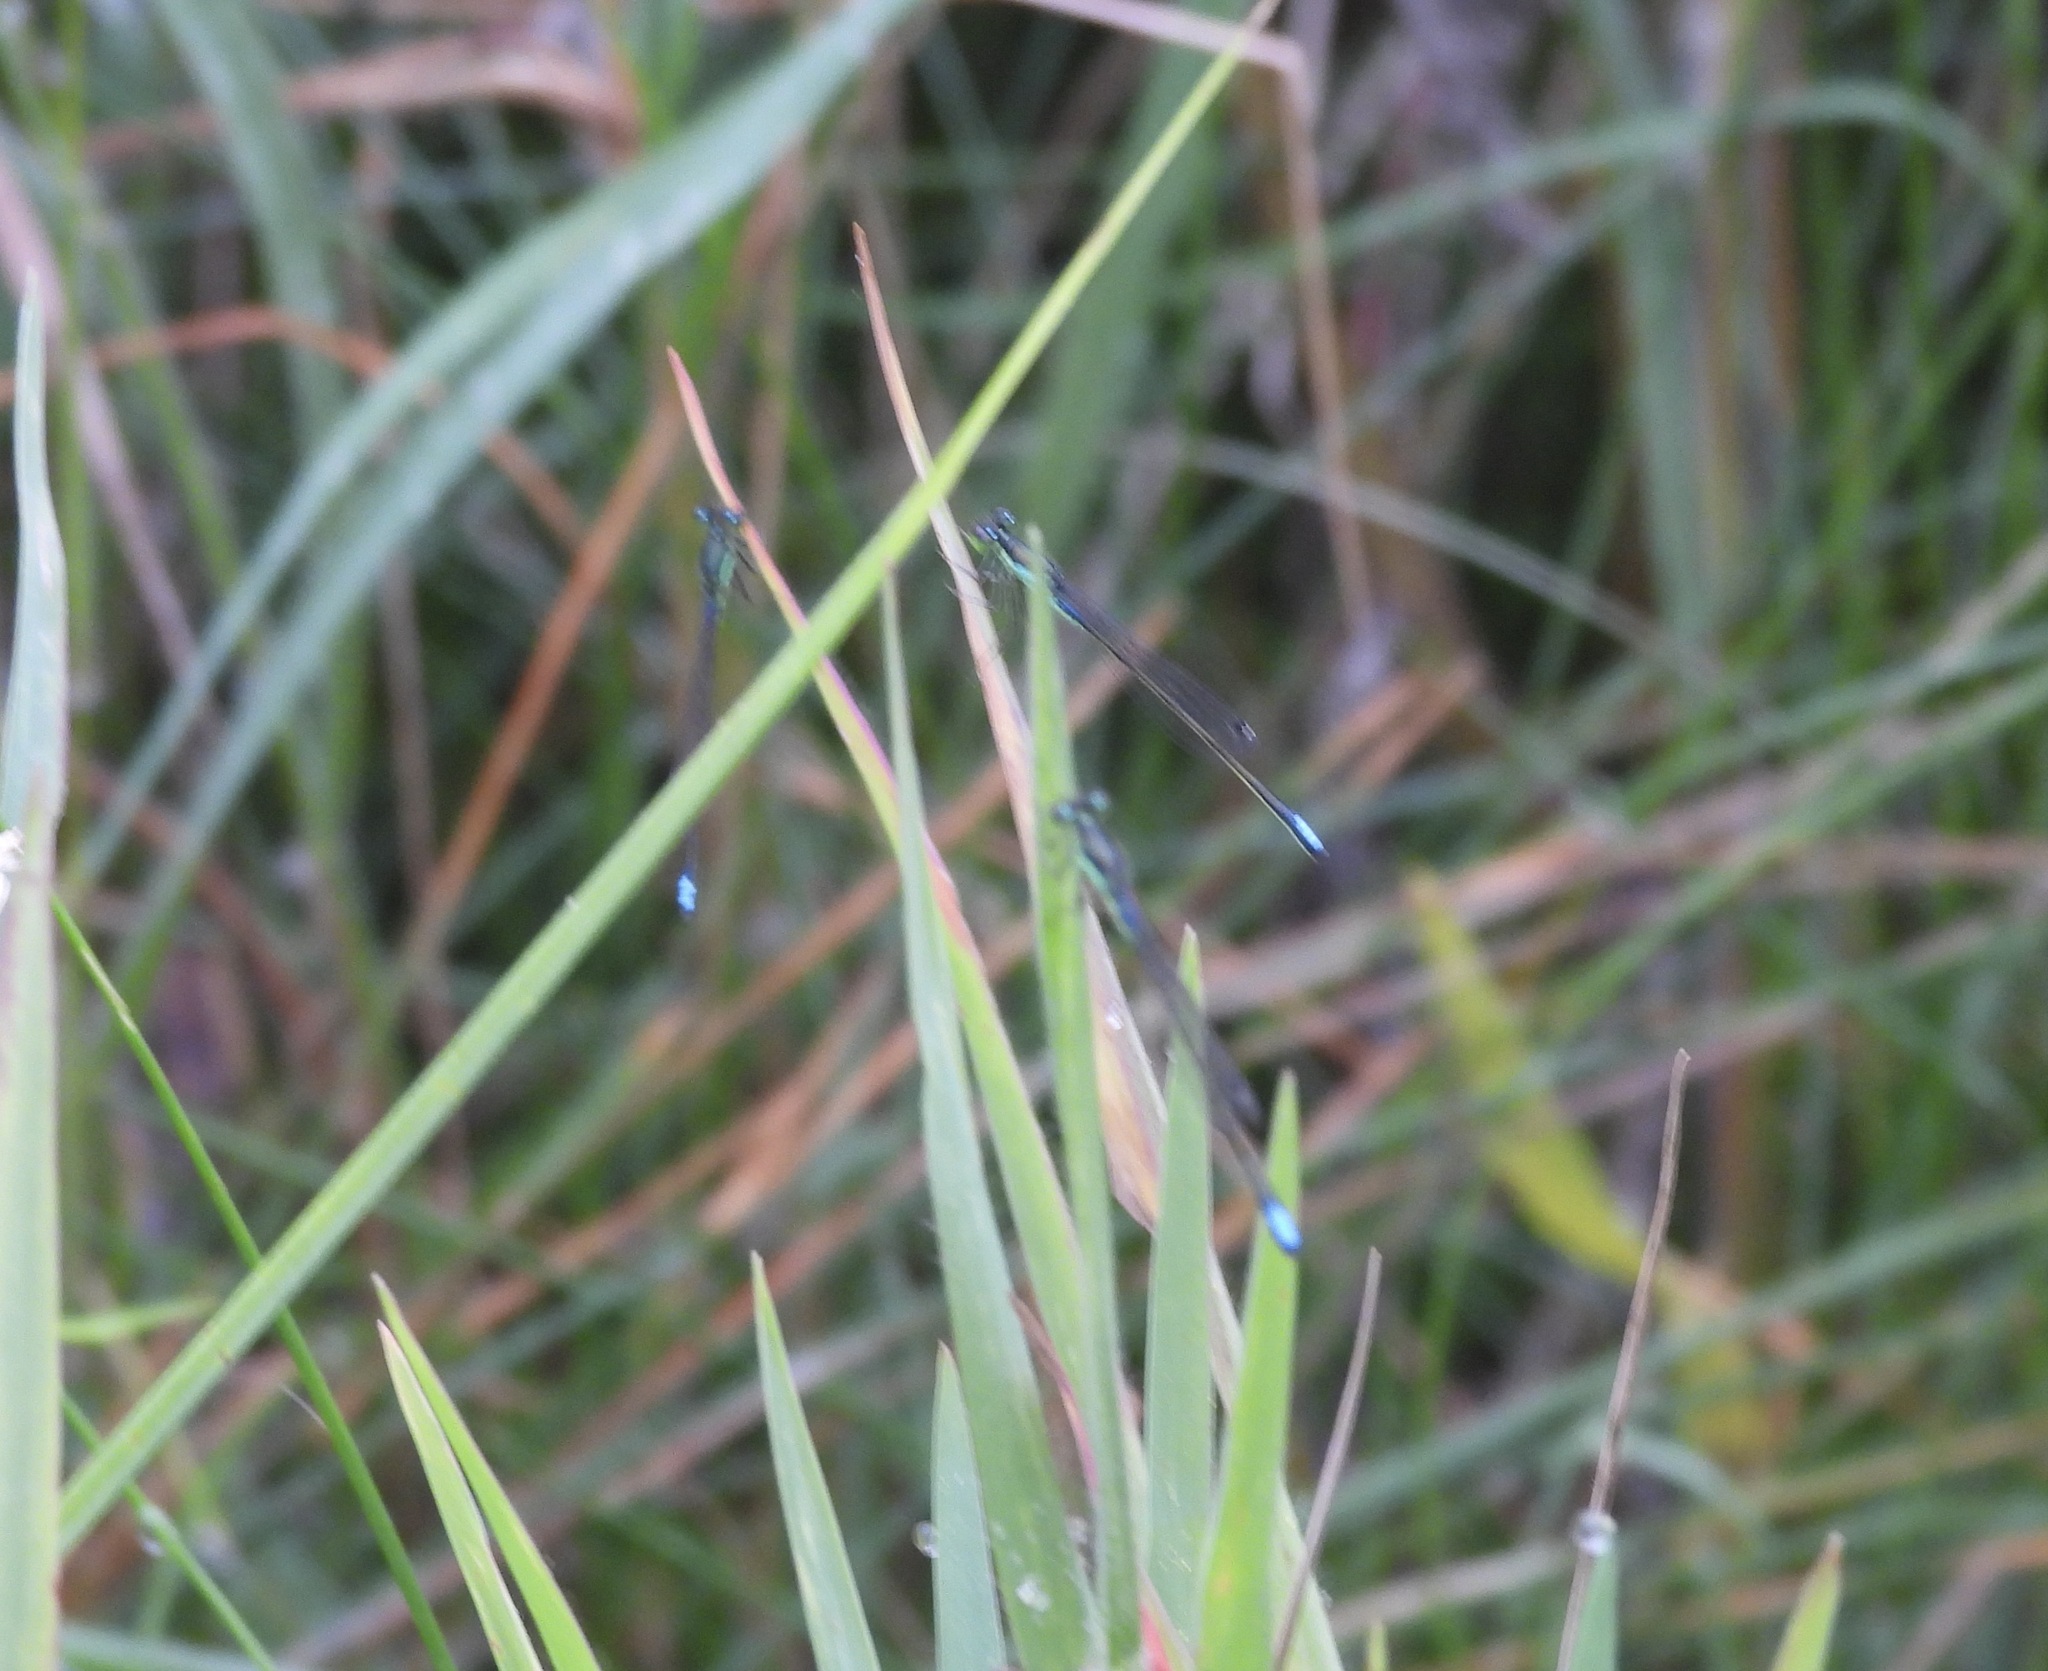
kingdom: Animalia
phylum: Arthropoda
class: Insecta
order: Odonata
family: Coenagrionidae
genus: Ischnura
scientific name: Ischnura denticollis
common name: Black-fronted forktail
